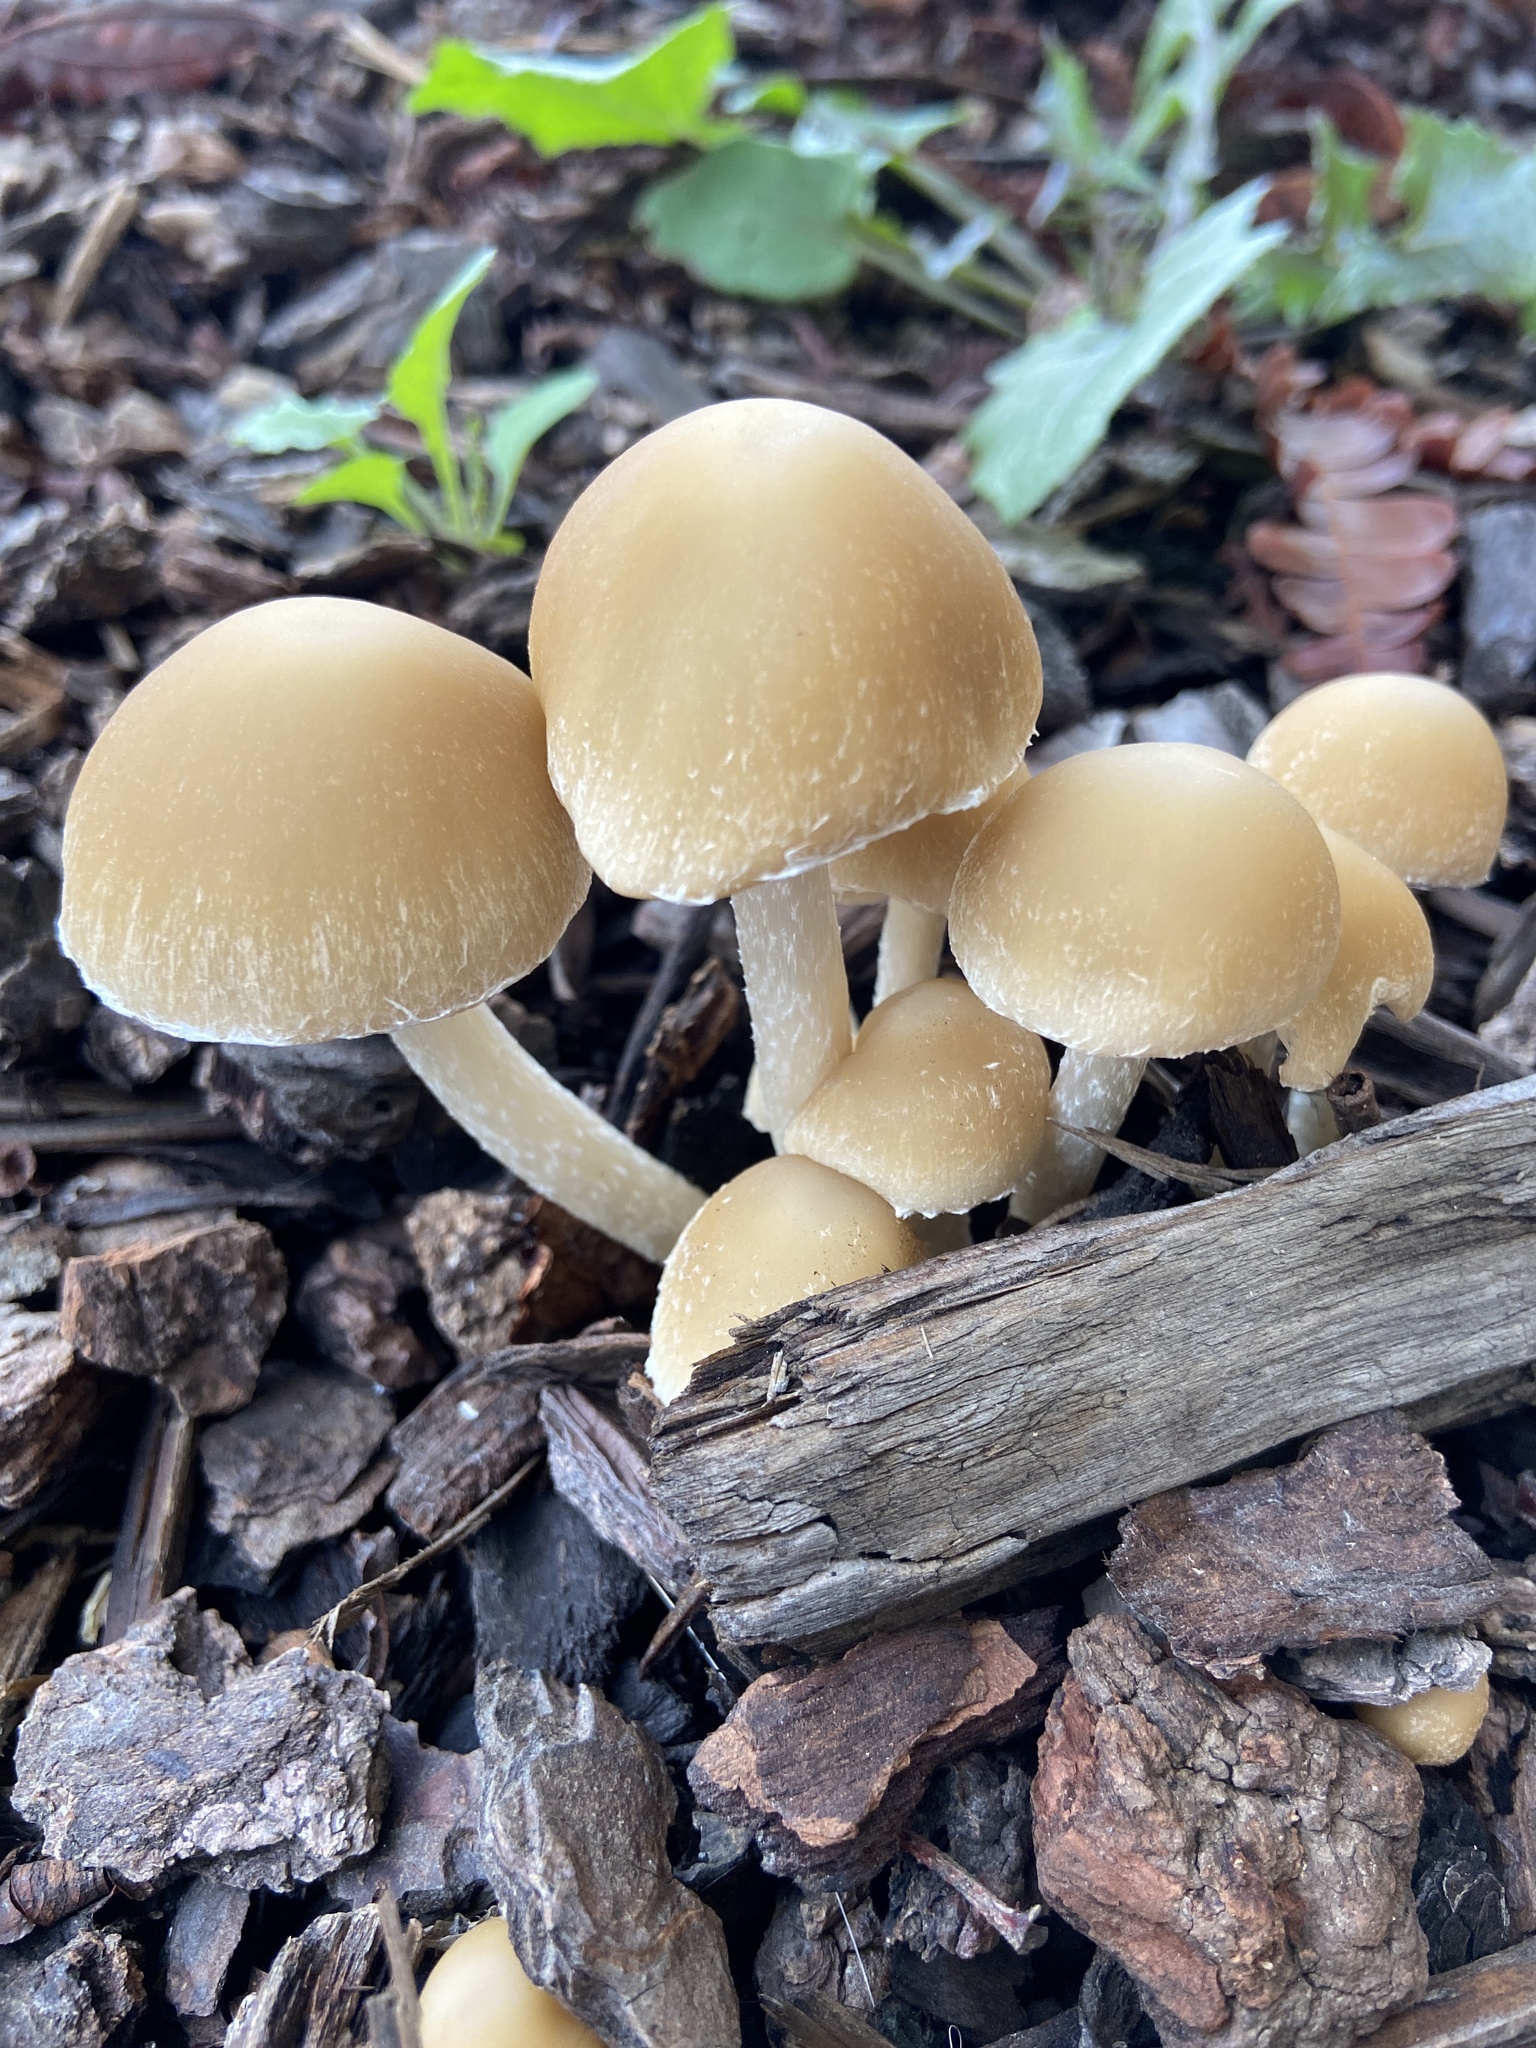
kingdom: Fungi
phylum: Basidiomycota
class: Agaricomycetes
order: Agaricales
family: Psathyrellaceae
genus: Candolleomyces
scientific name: Candolleomyces candolleanus
